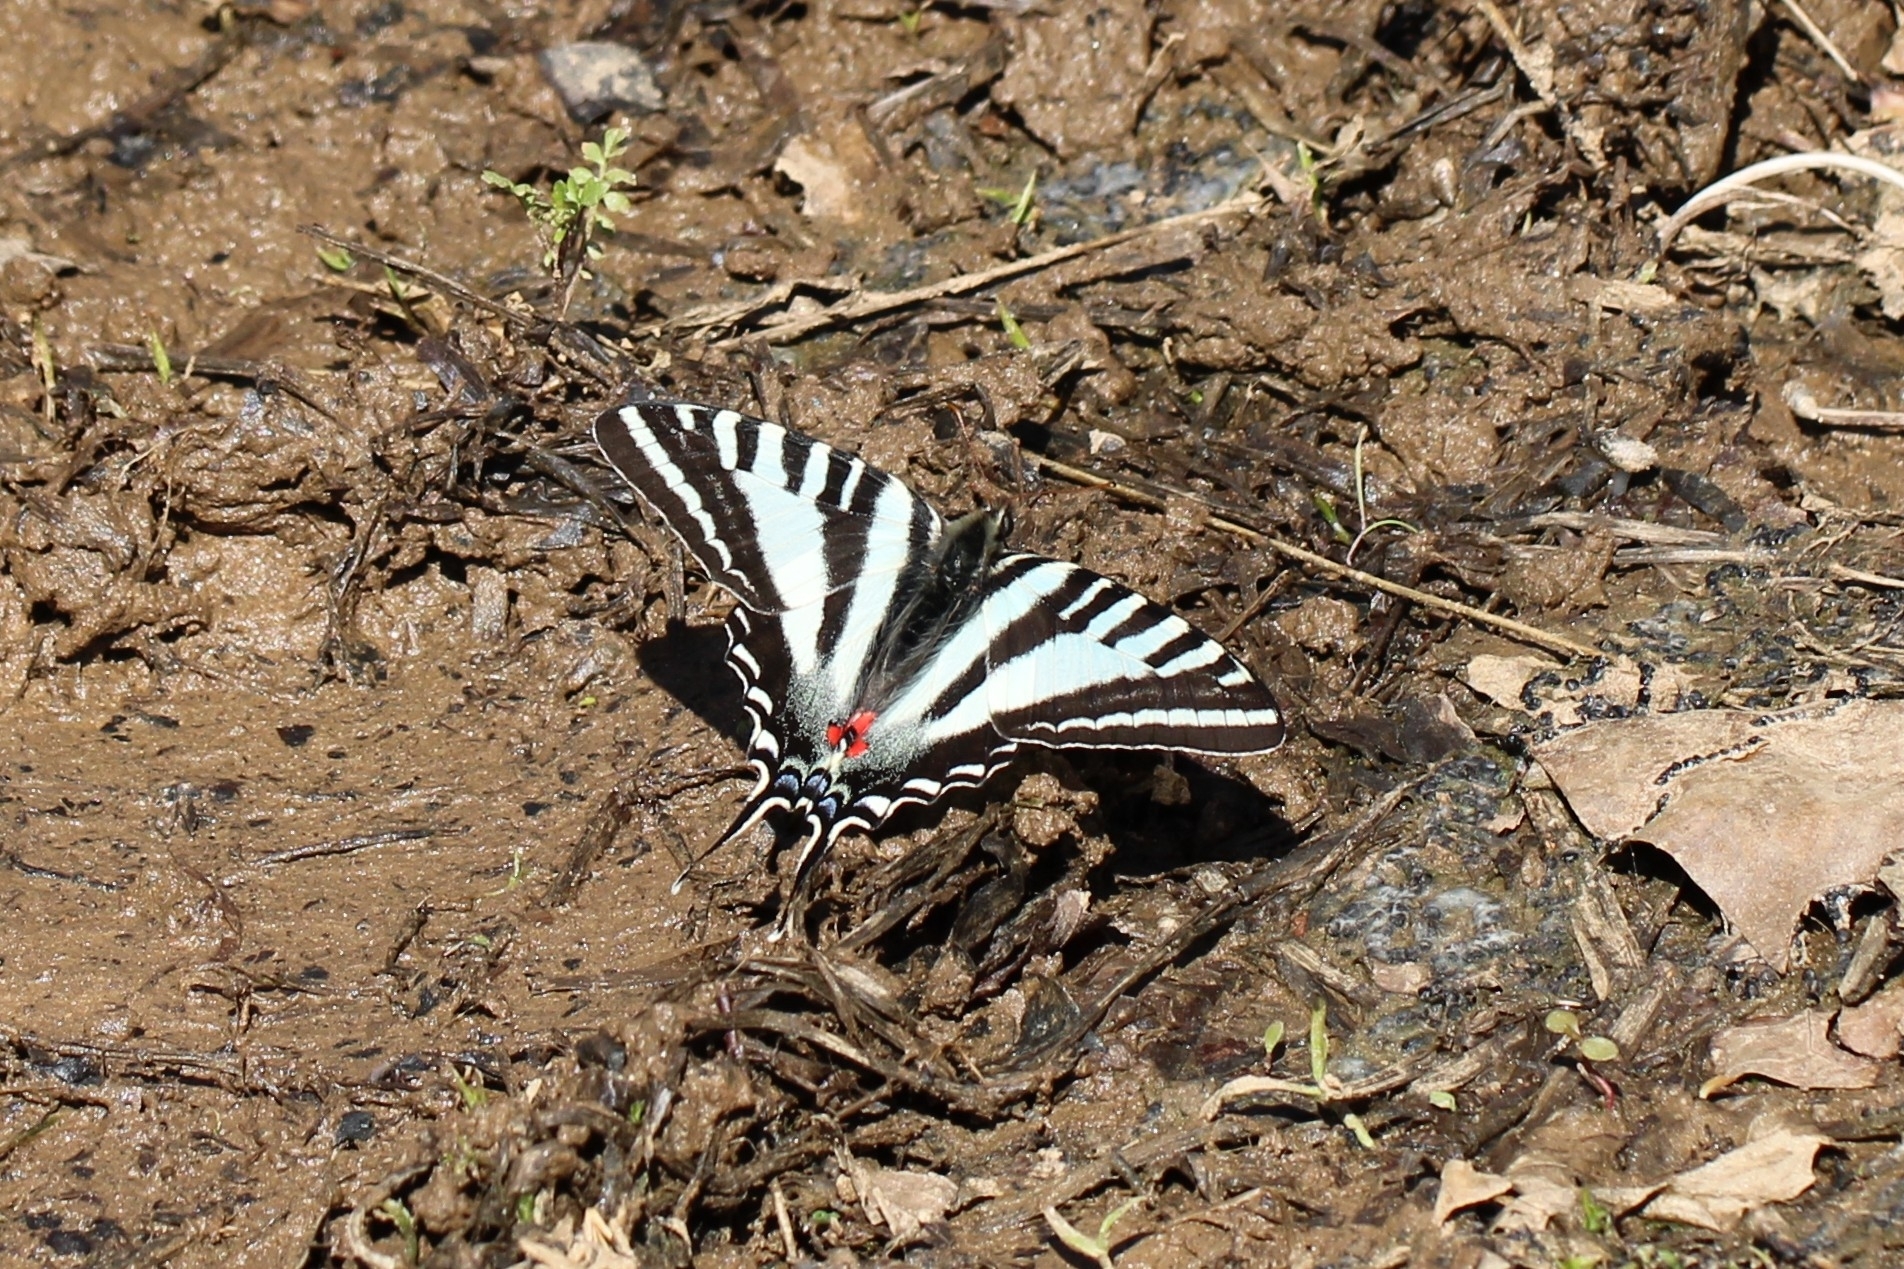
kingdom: Animalia
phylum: Arthropoda
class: Insecta
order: Lepidoptera
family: Papilionidae
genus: Protographium
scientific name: Protographium marcellus
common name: Zebra swallowtail
